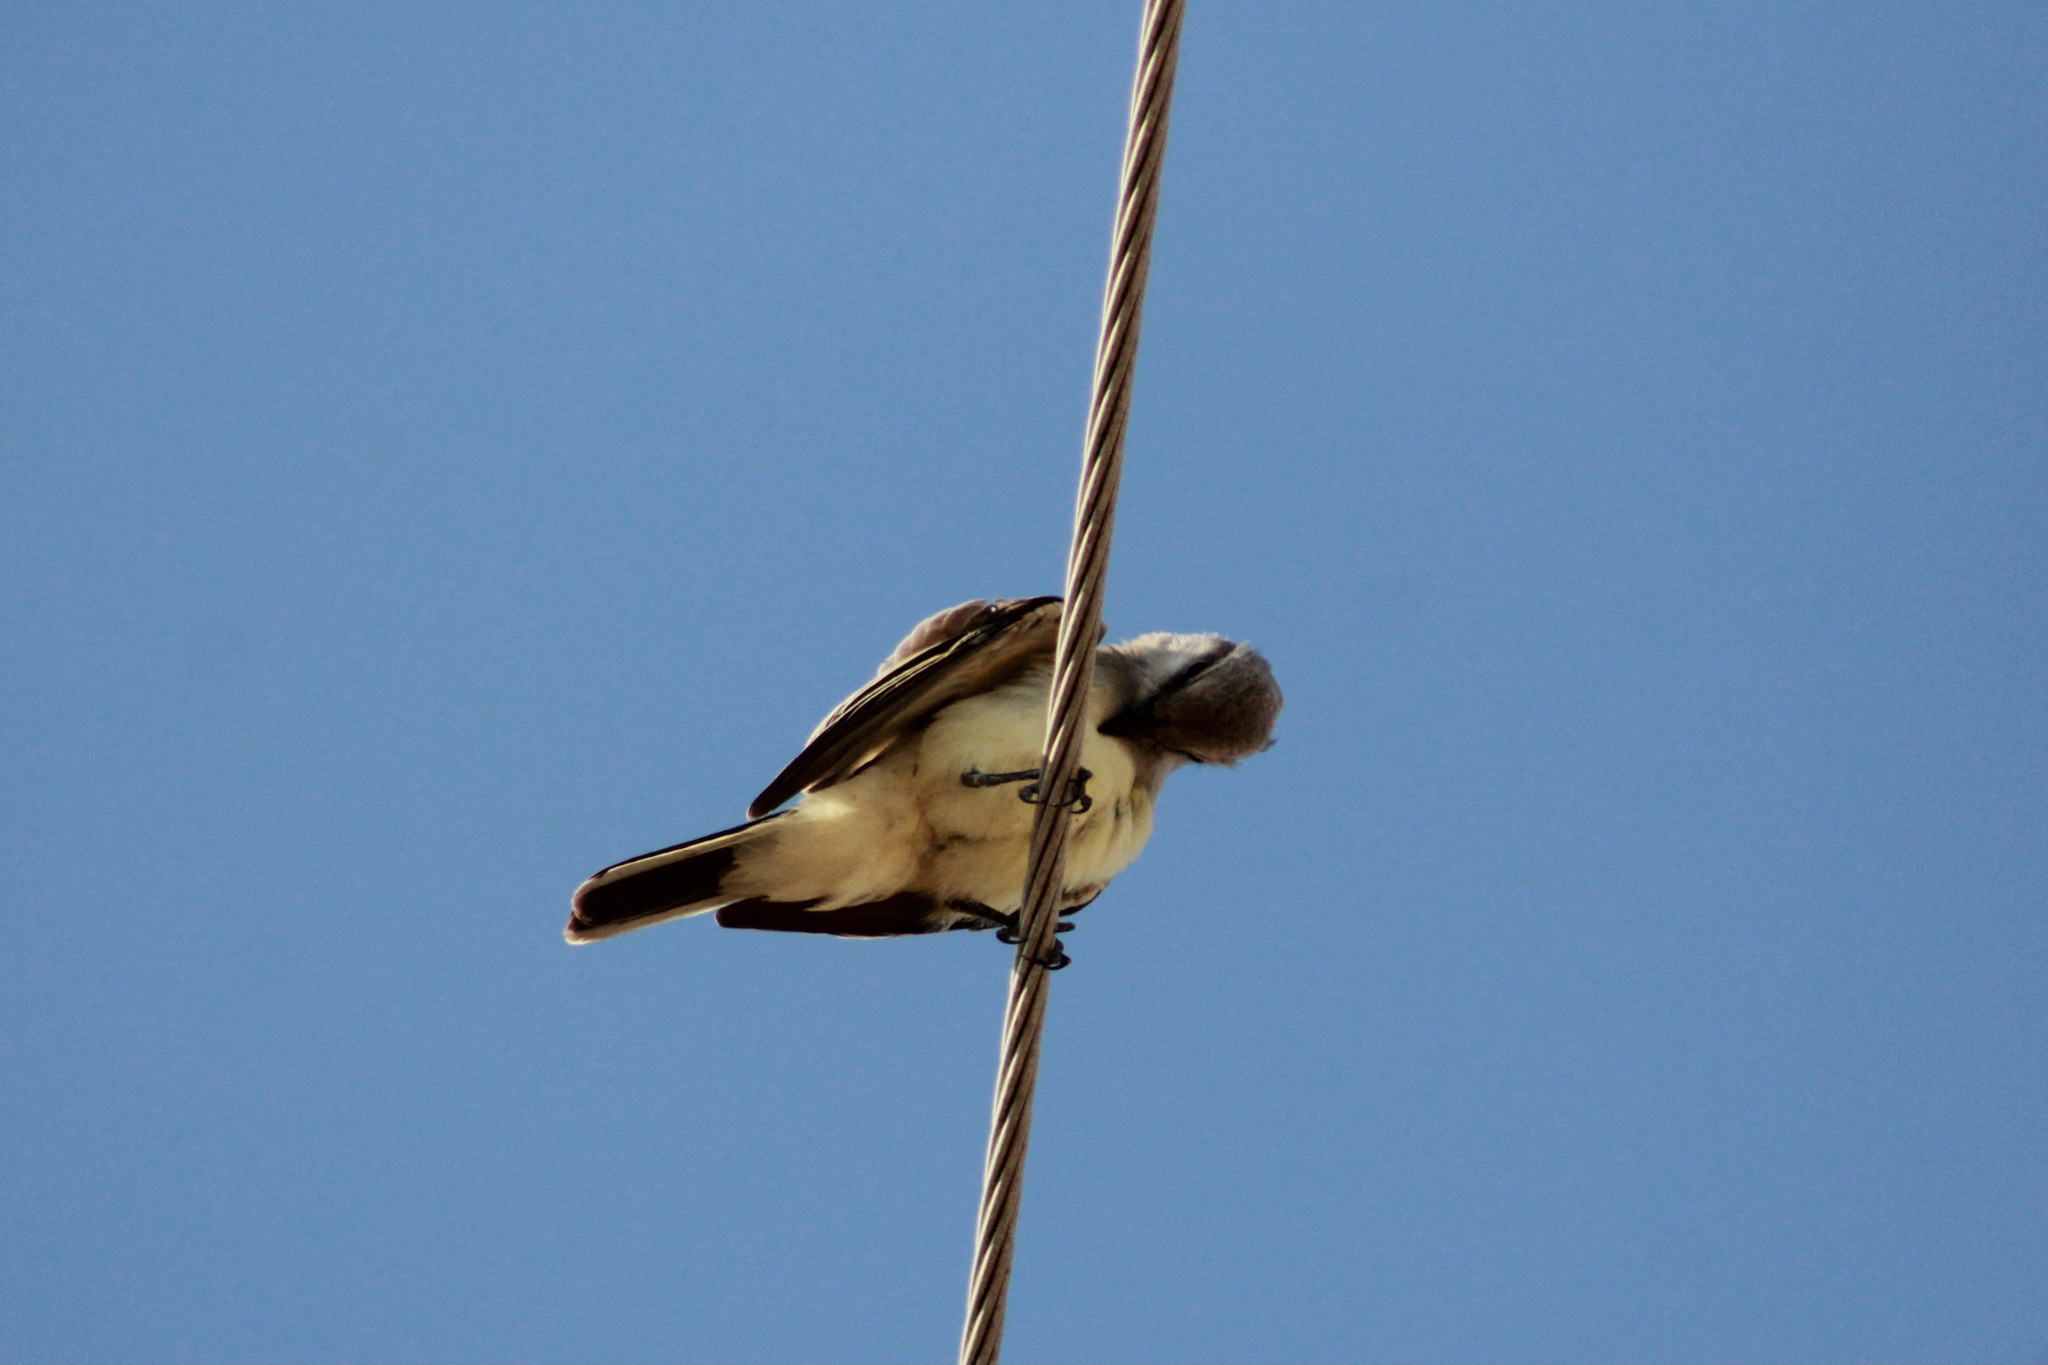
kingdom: Animalia
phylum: Chordata
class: Aves
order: Passeriformes
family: Tyrannidae
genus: Tyrannus
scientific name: Tyrannus verticalis
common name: Western kingbird
